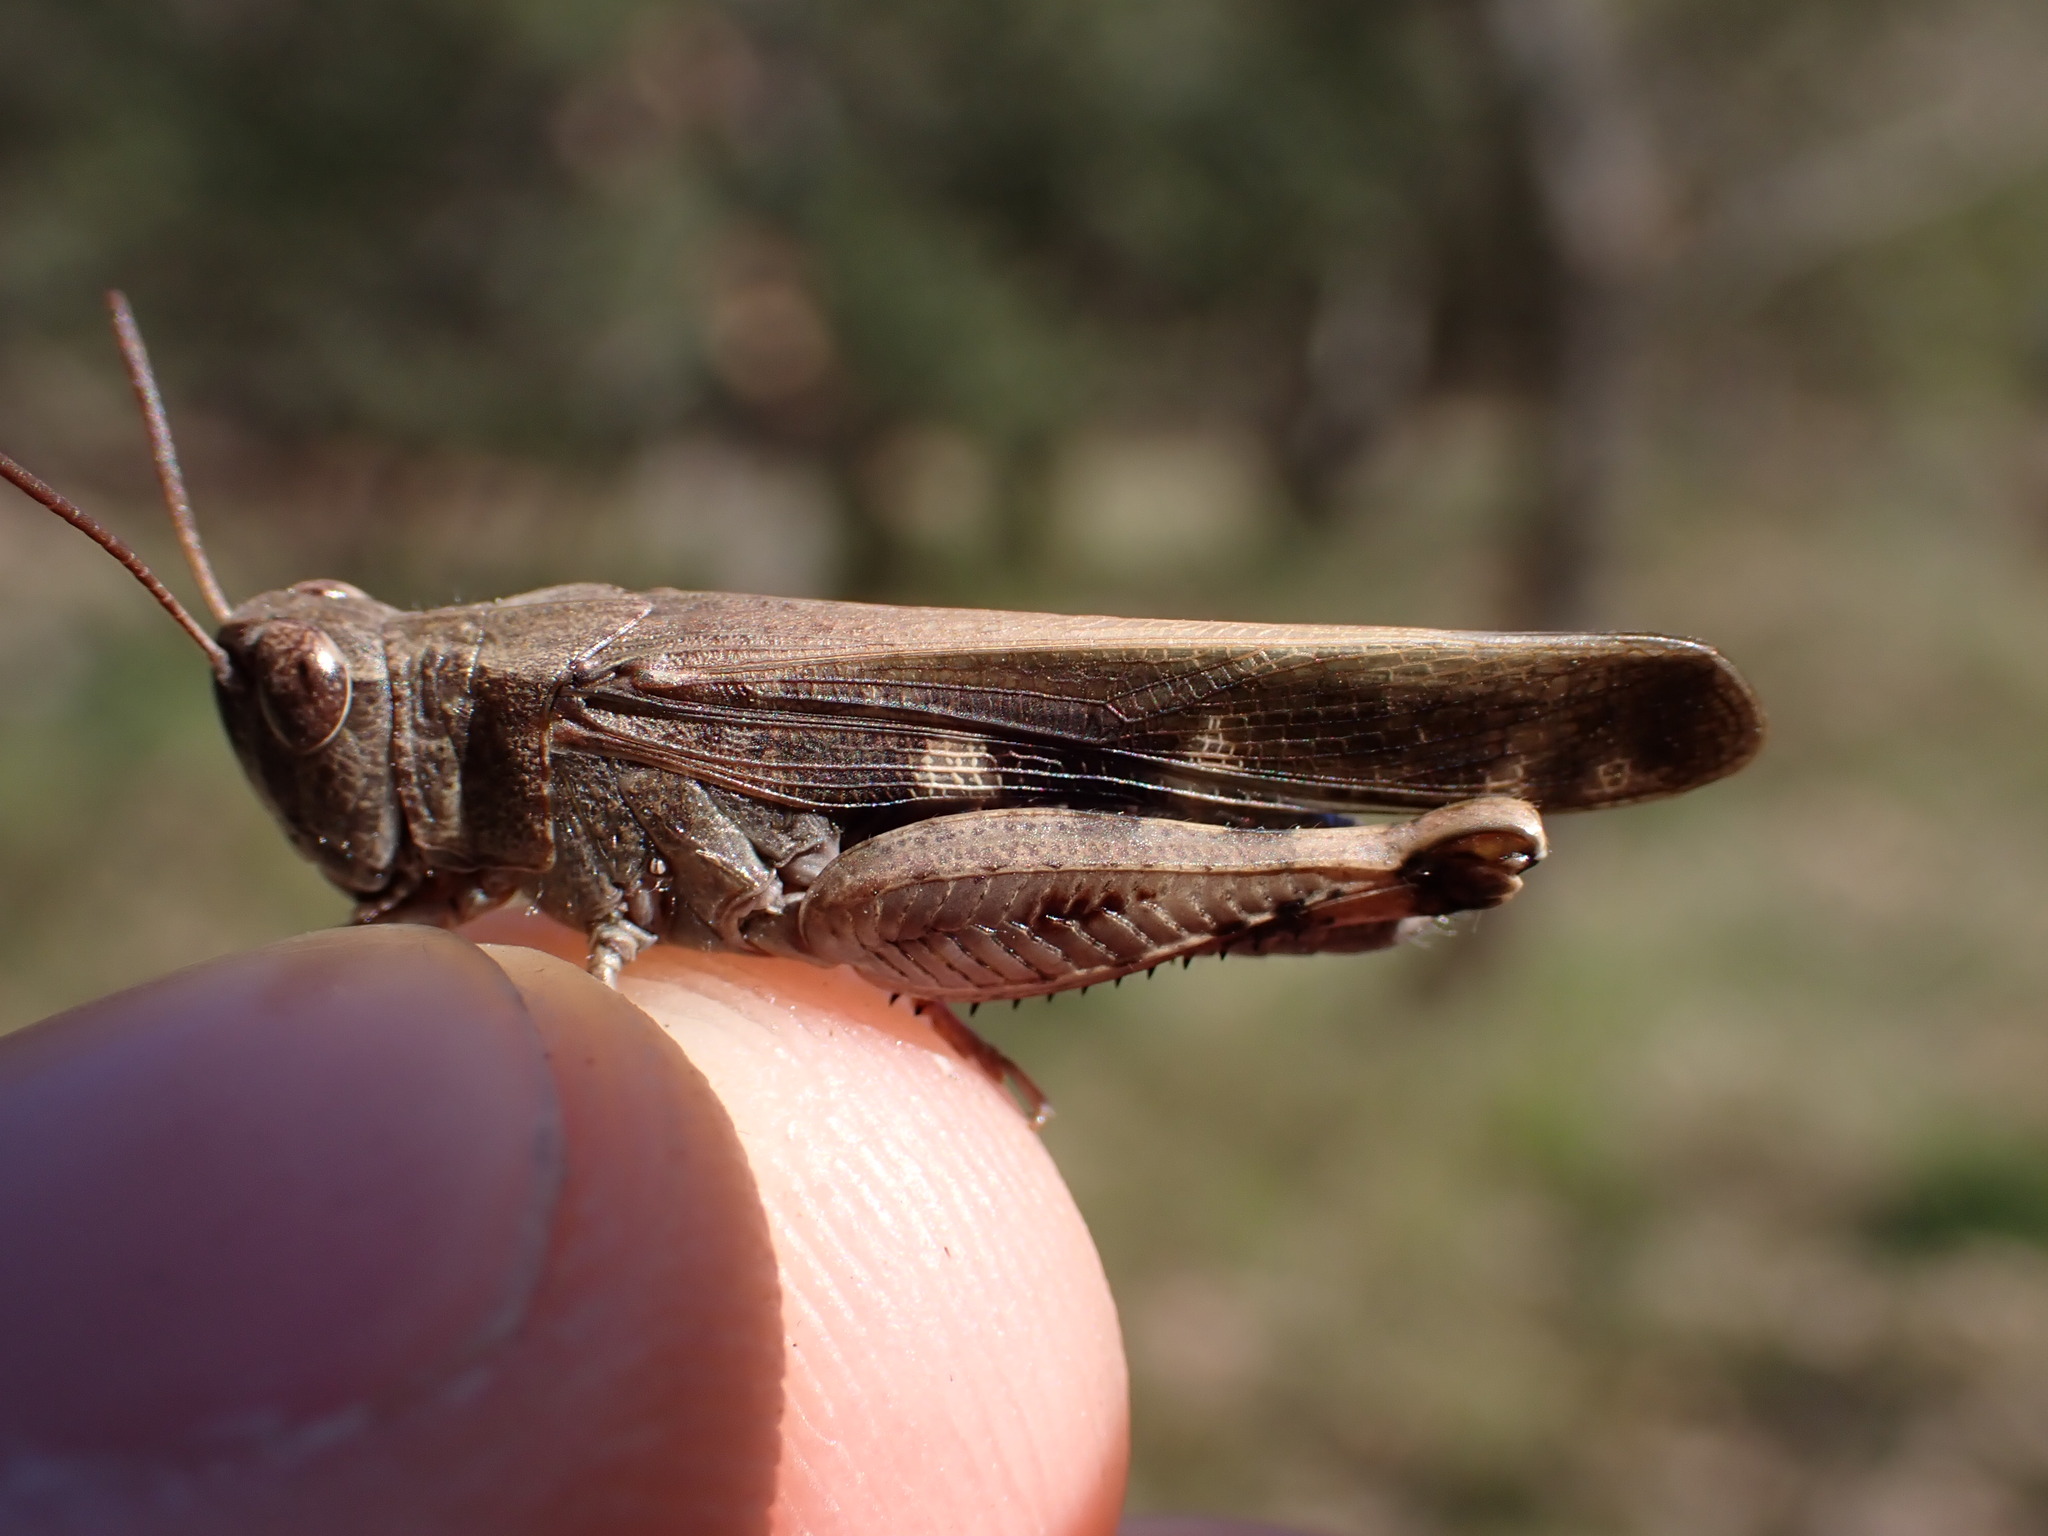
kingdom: Animalia
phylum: Arthropoda
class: Insecta
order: Orthoptera
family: Acrididae
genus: Aiolopus
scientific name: Aiolopus strepens
